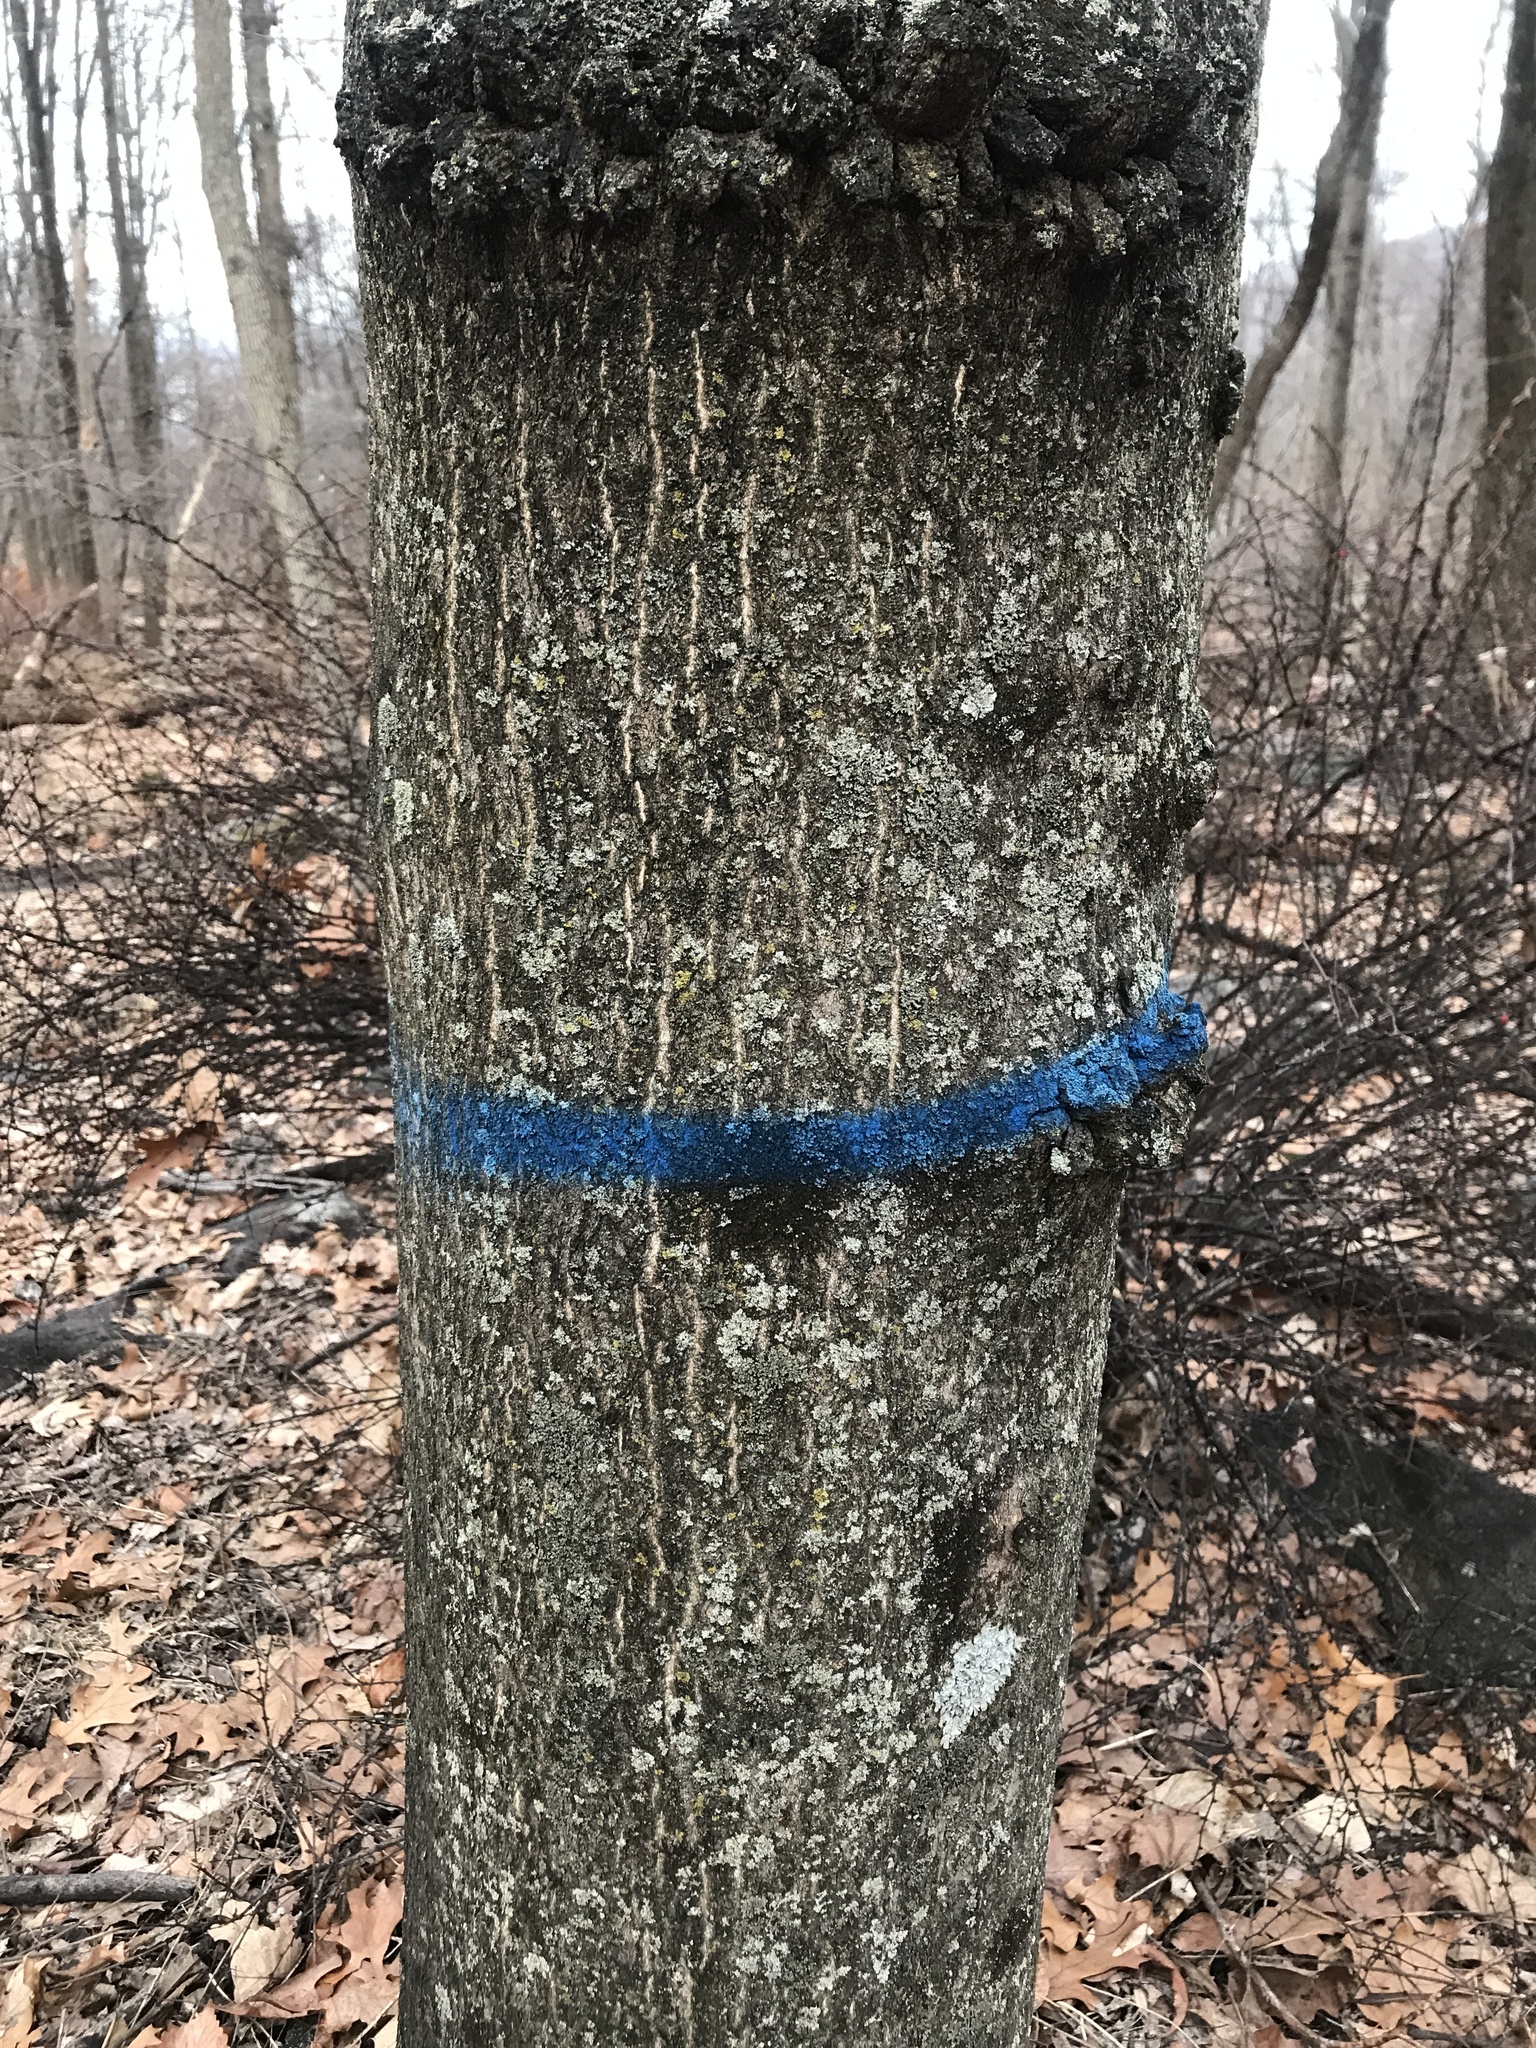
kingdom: Plantae
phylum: Tracheophyta
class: Magnoliopsida
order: Sapindales
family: Simaroubaceae
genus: Ailanthus
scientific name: Ailanthus altissima
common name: Tree-of-heaven
